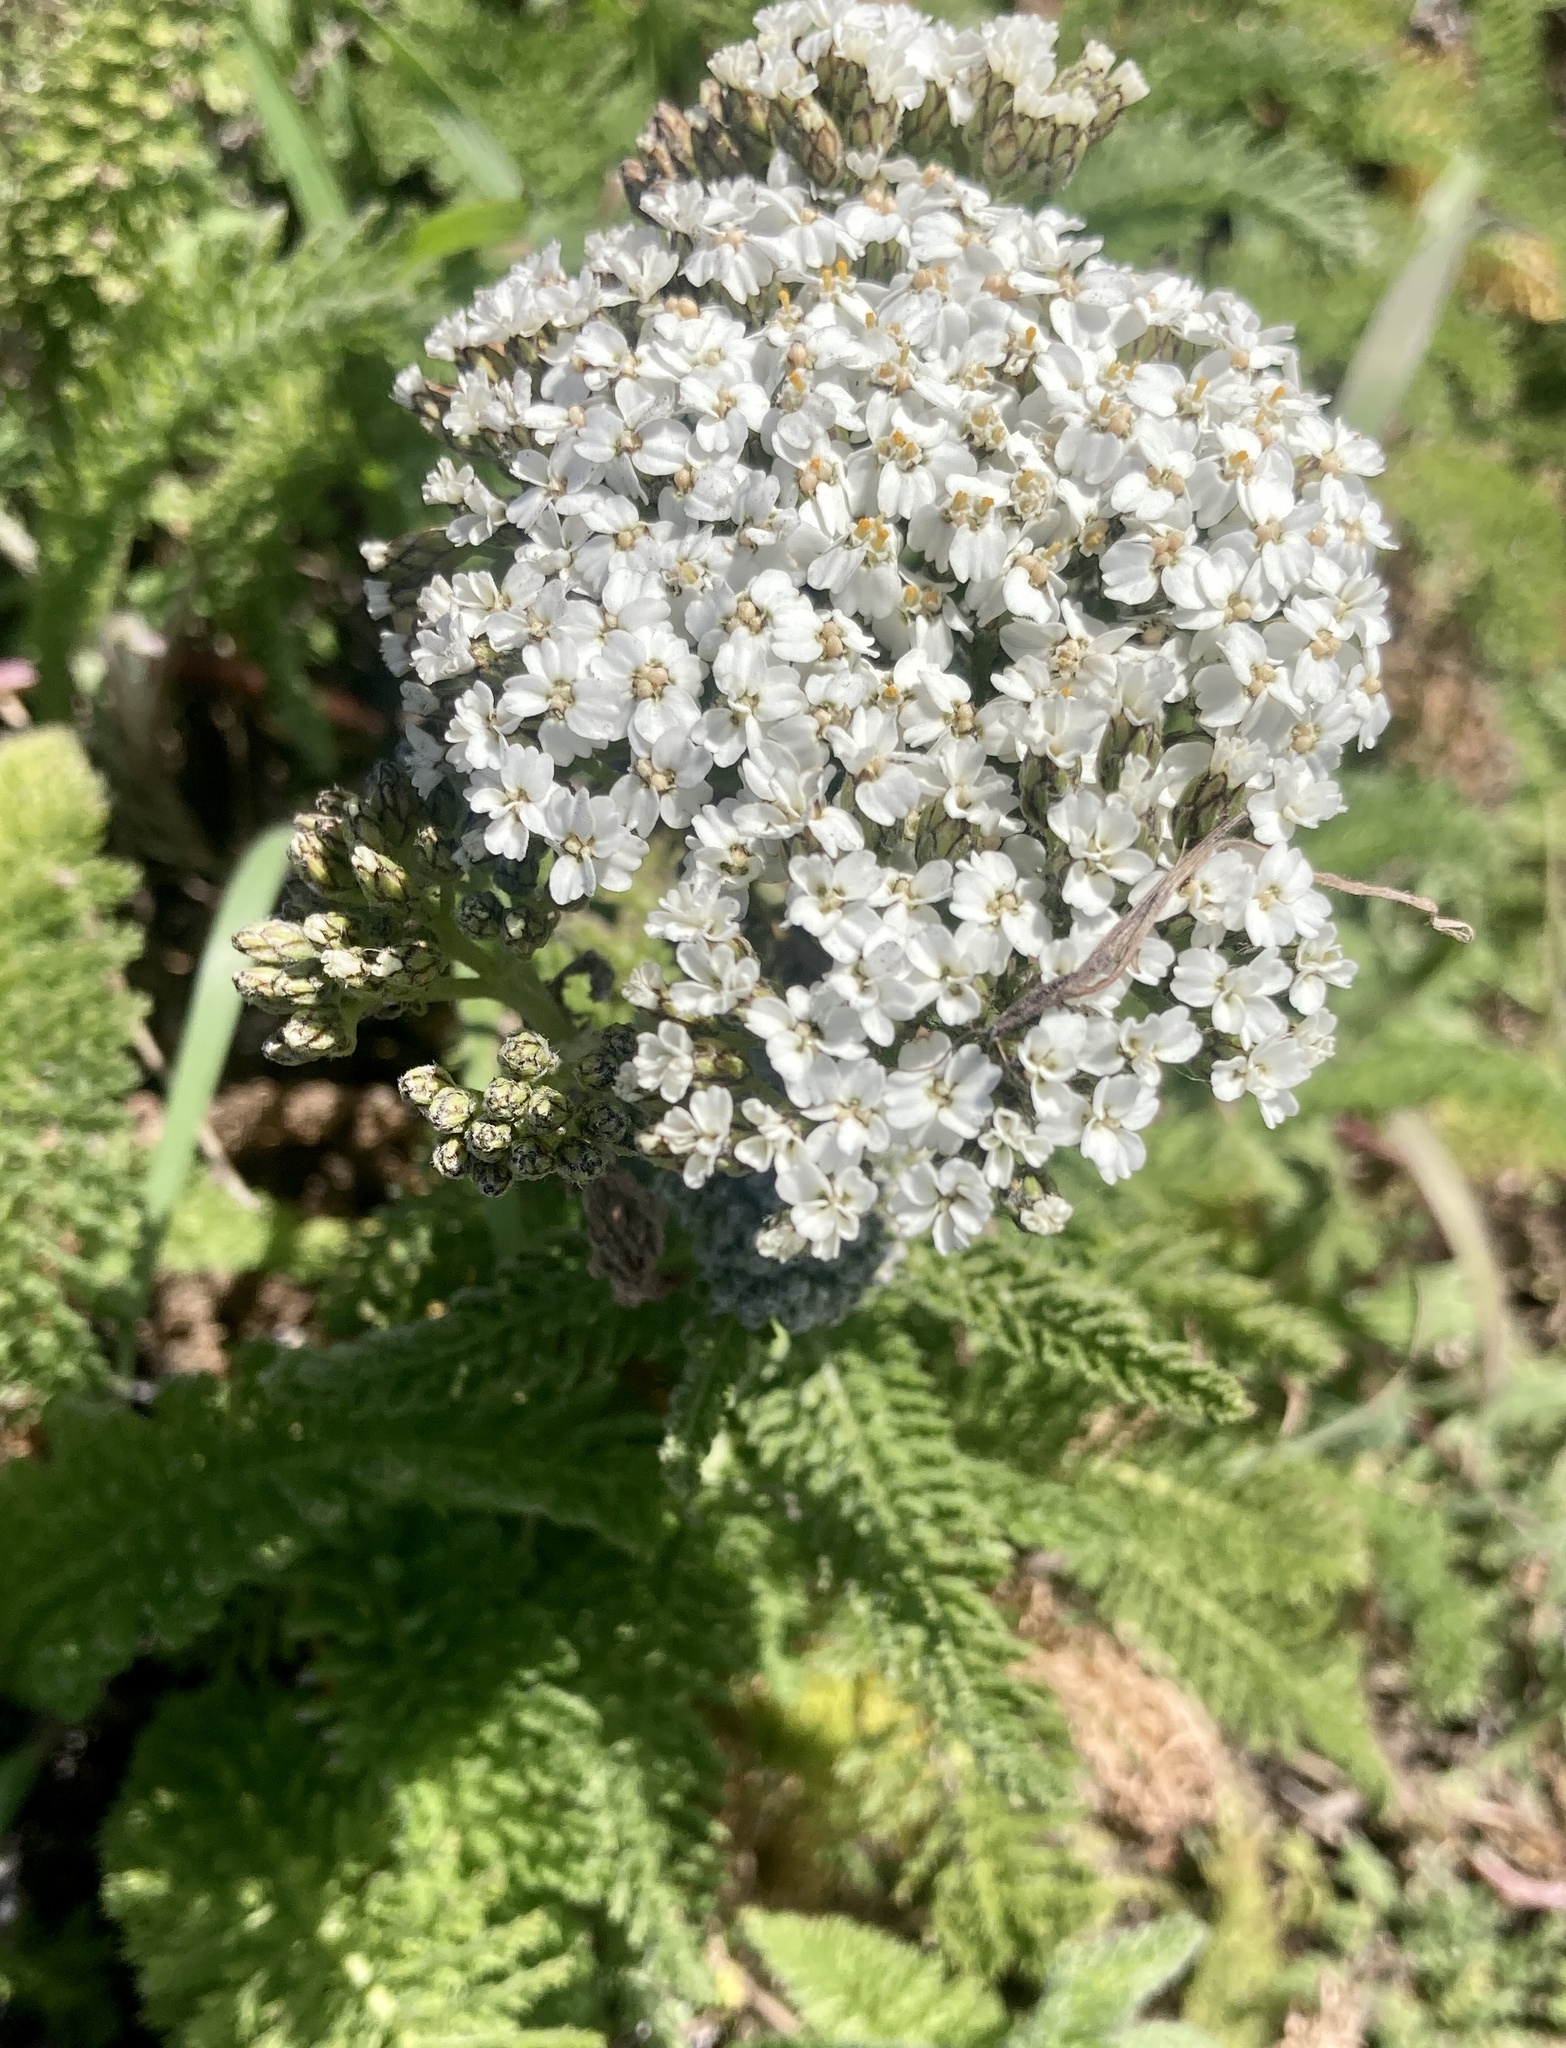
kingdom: Plantae
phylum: Tracheophyta
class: Magnoliopsida
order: Asterales
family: Asteraceae
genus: Achillea
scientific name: Achillea millefolium
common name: Yarrow
